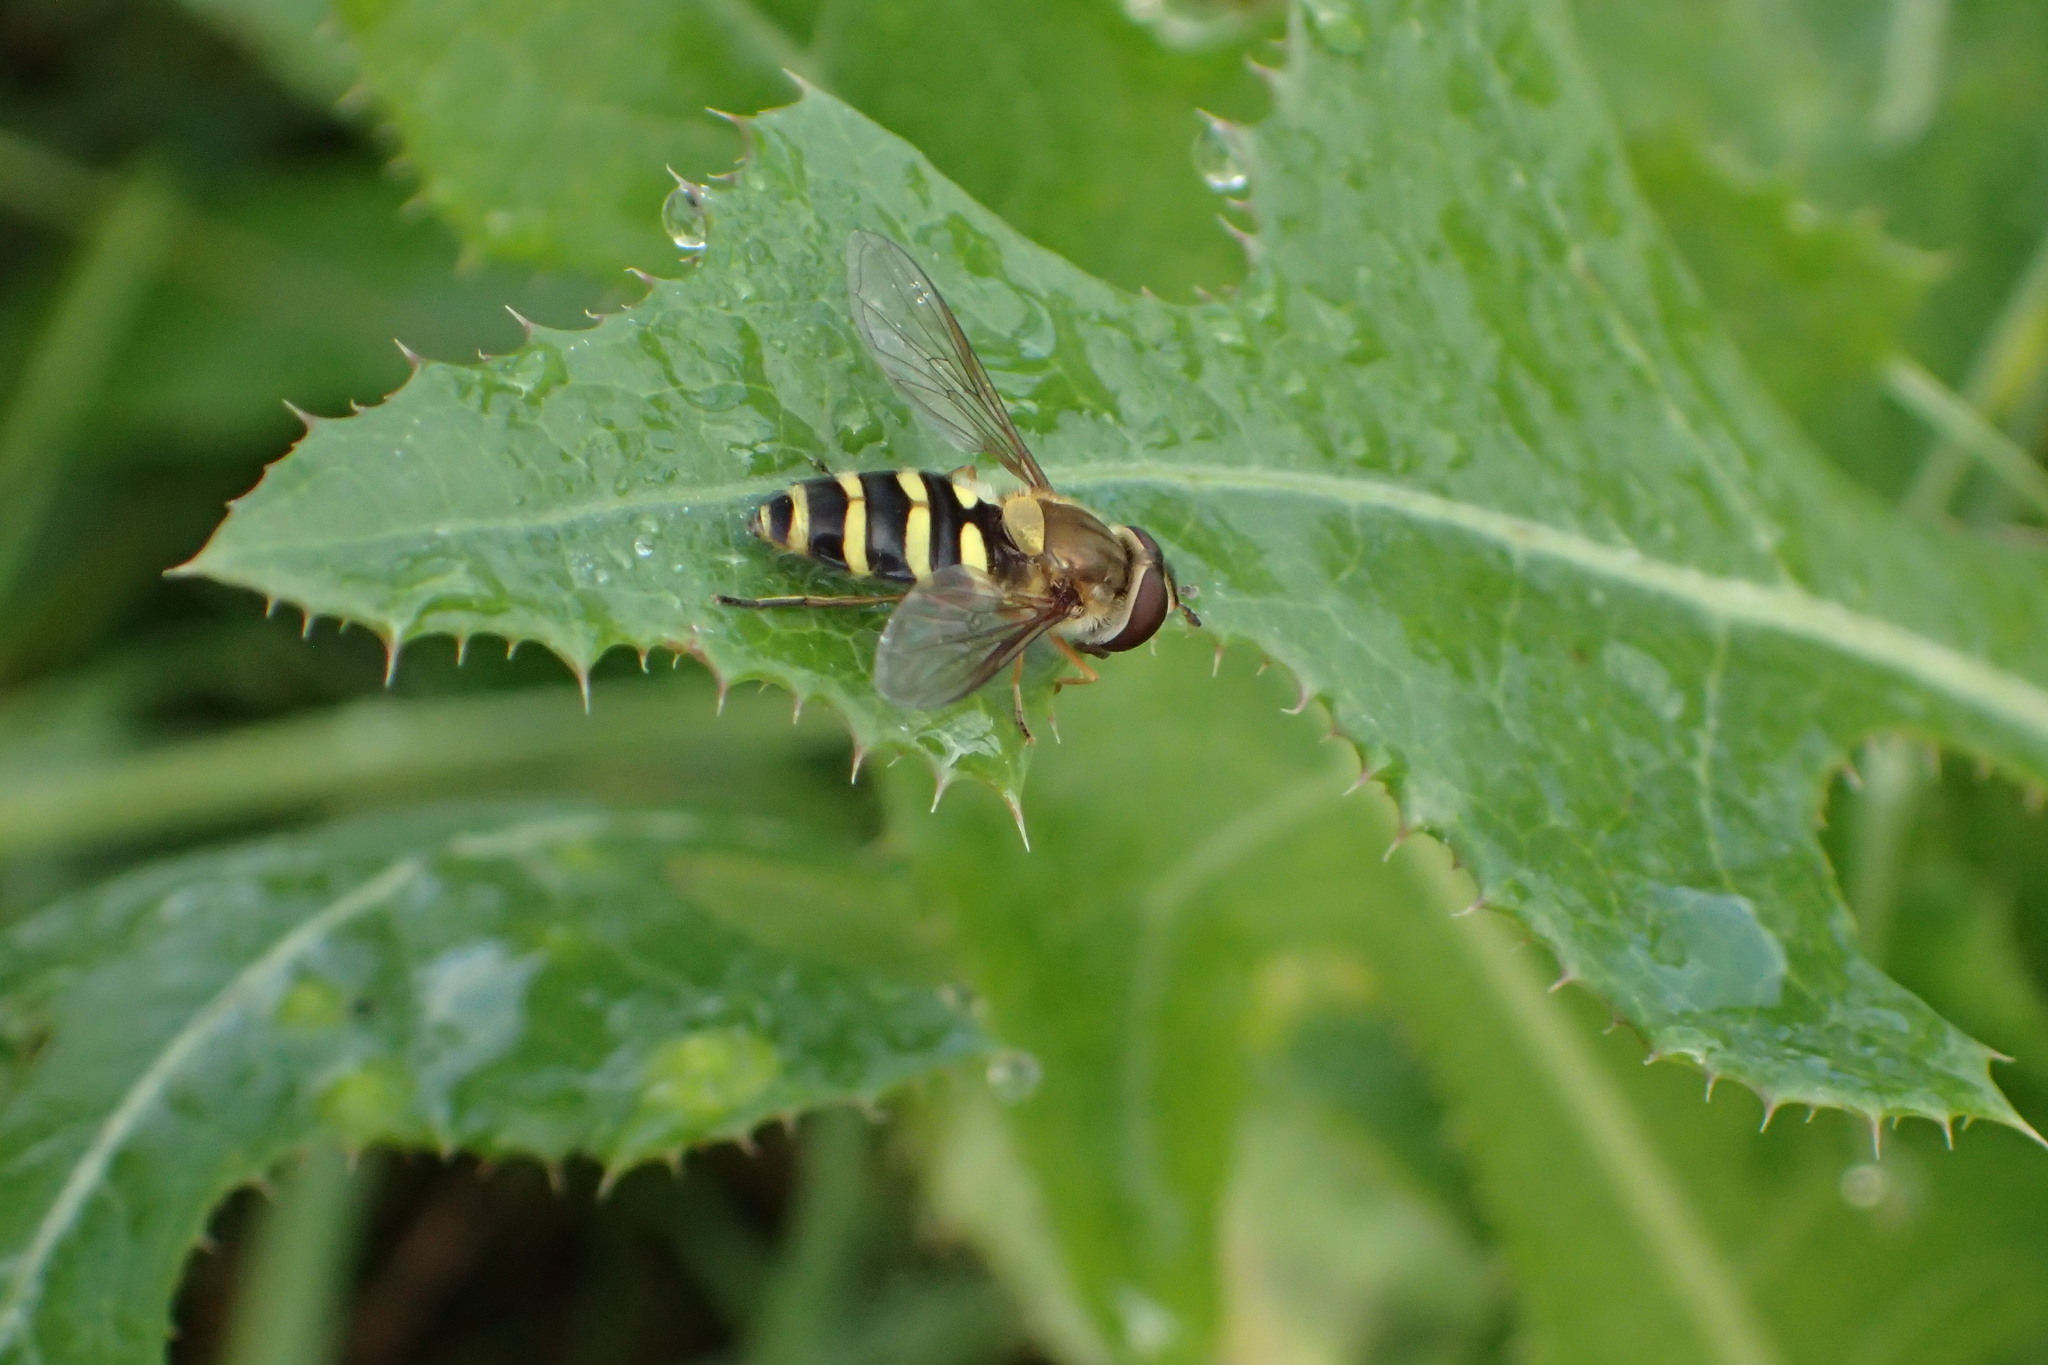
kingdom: Animalia
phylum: Arthropoda
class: Insecta
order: Diptera
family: Syrphidae
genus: Syrphus
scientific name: Syrphus
